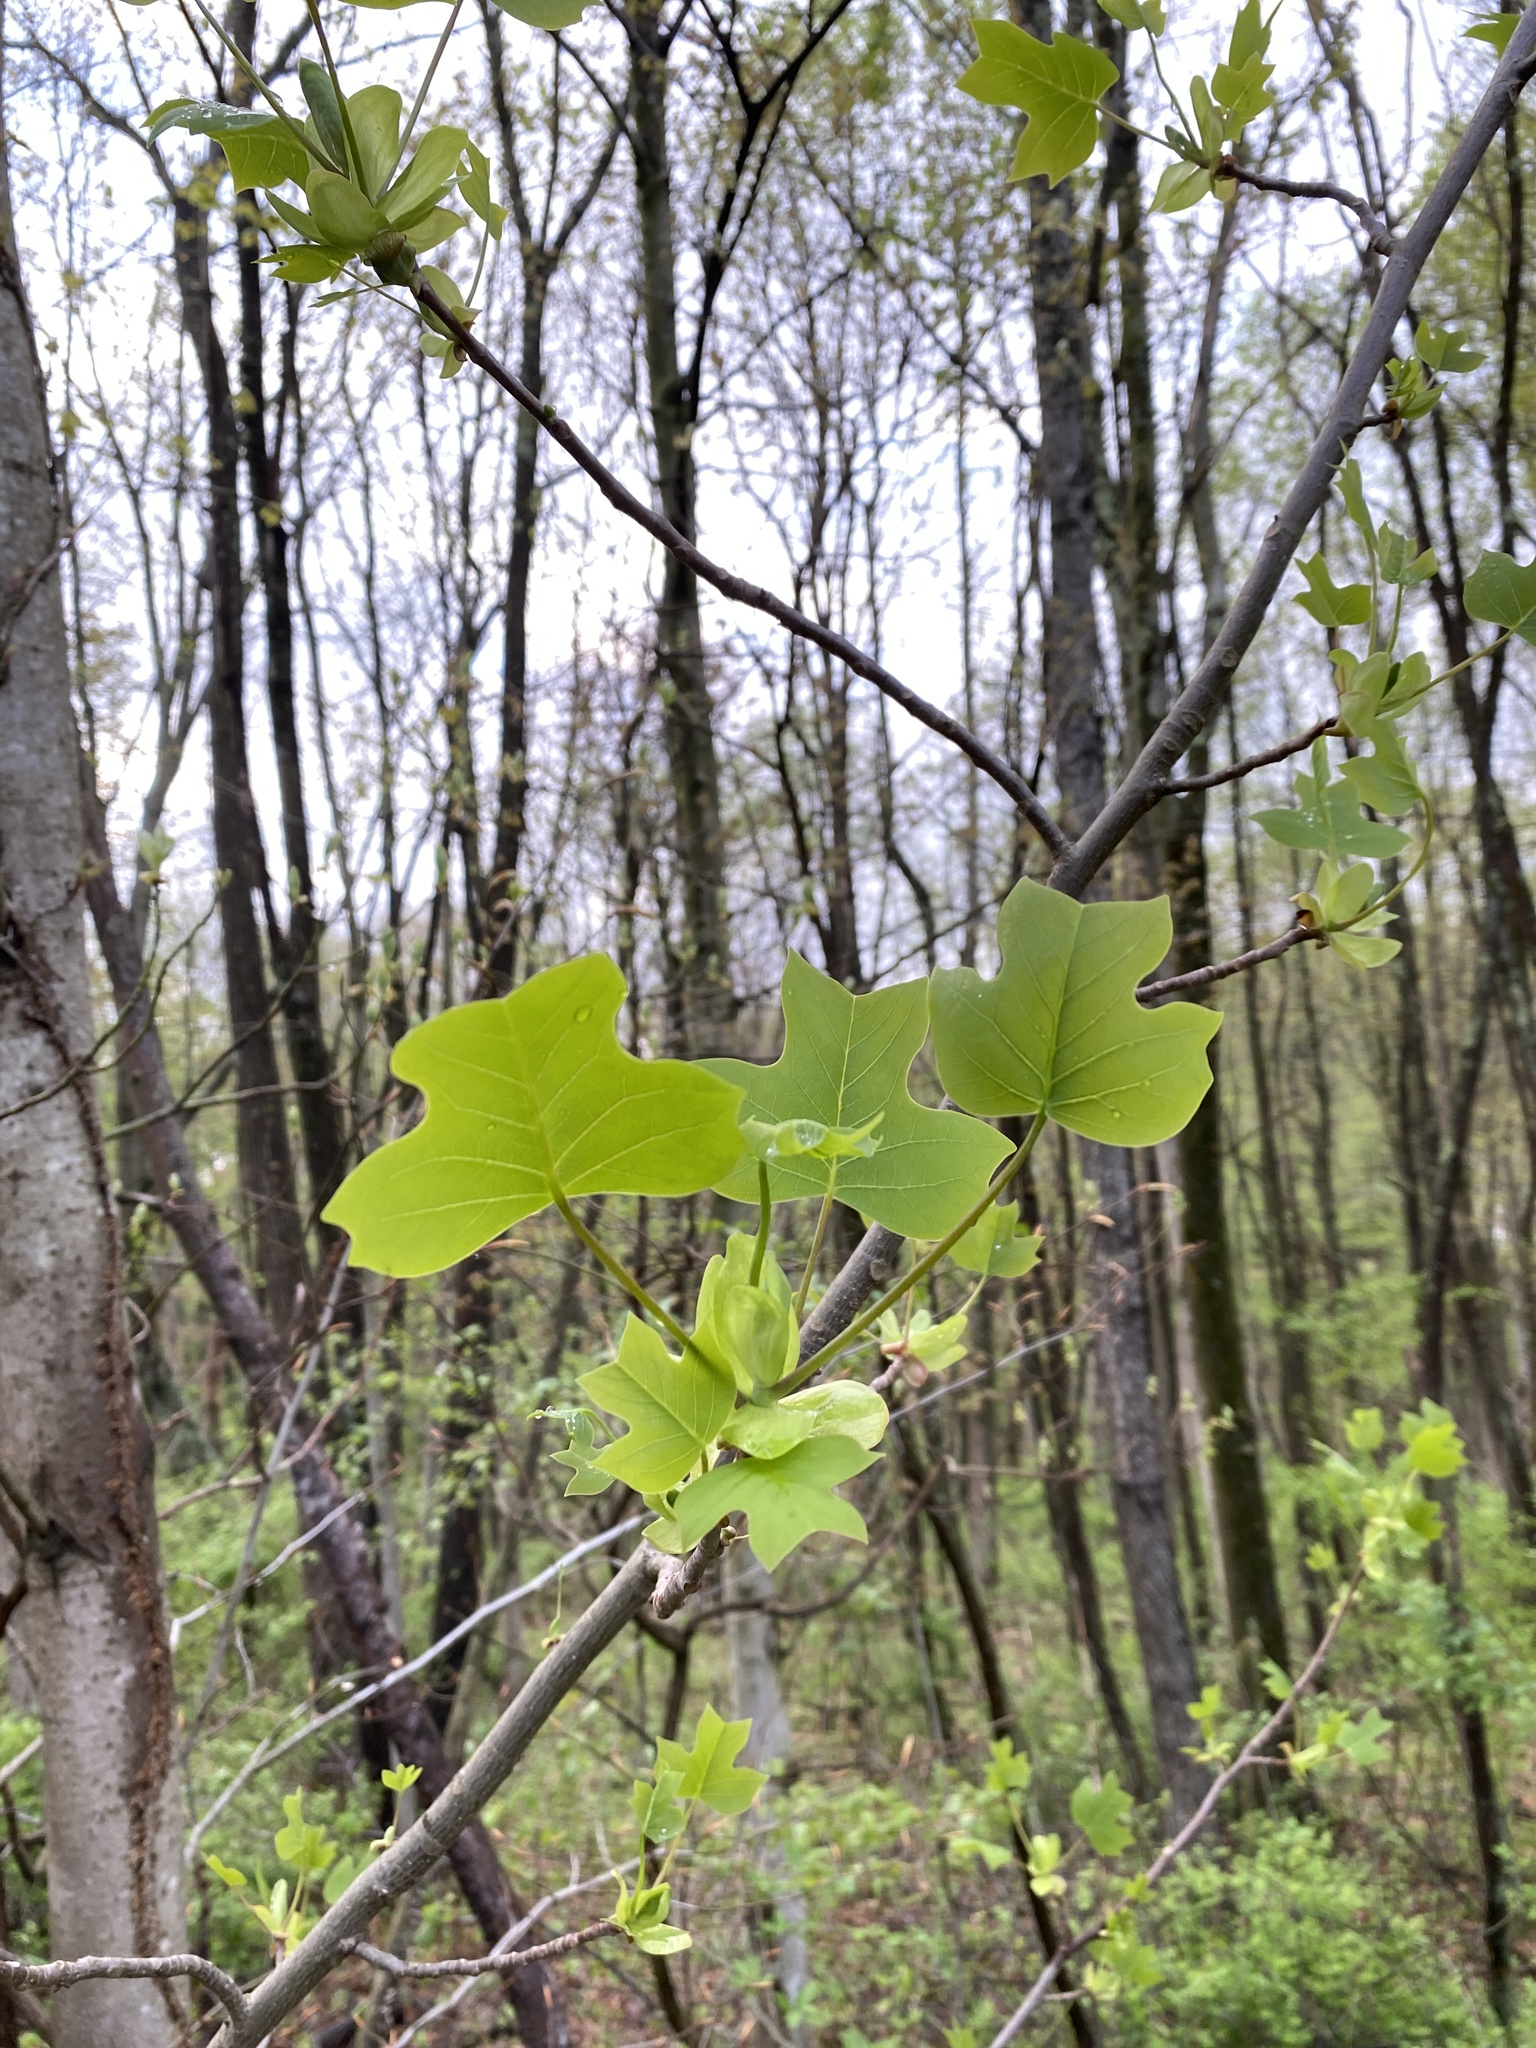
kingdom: Plantae
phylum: Tracheophyta
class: Magnoliopsida
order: Magnoliales
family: Magnoliaceae
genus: Liriodendron
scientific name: Liriodendron tulipifera
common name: Tulip tree
